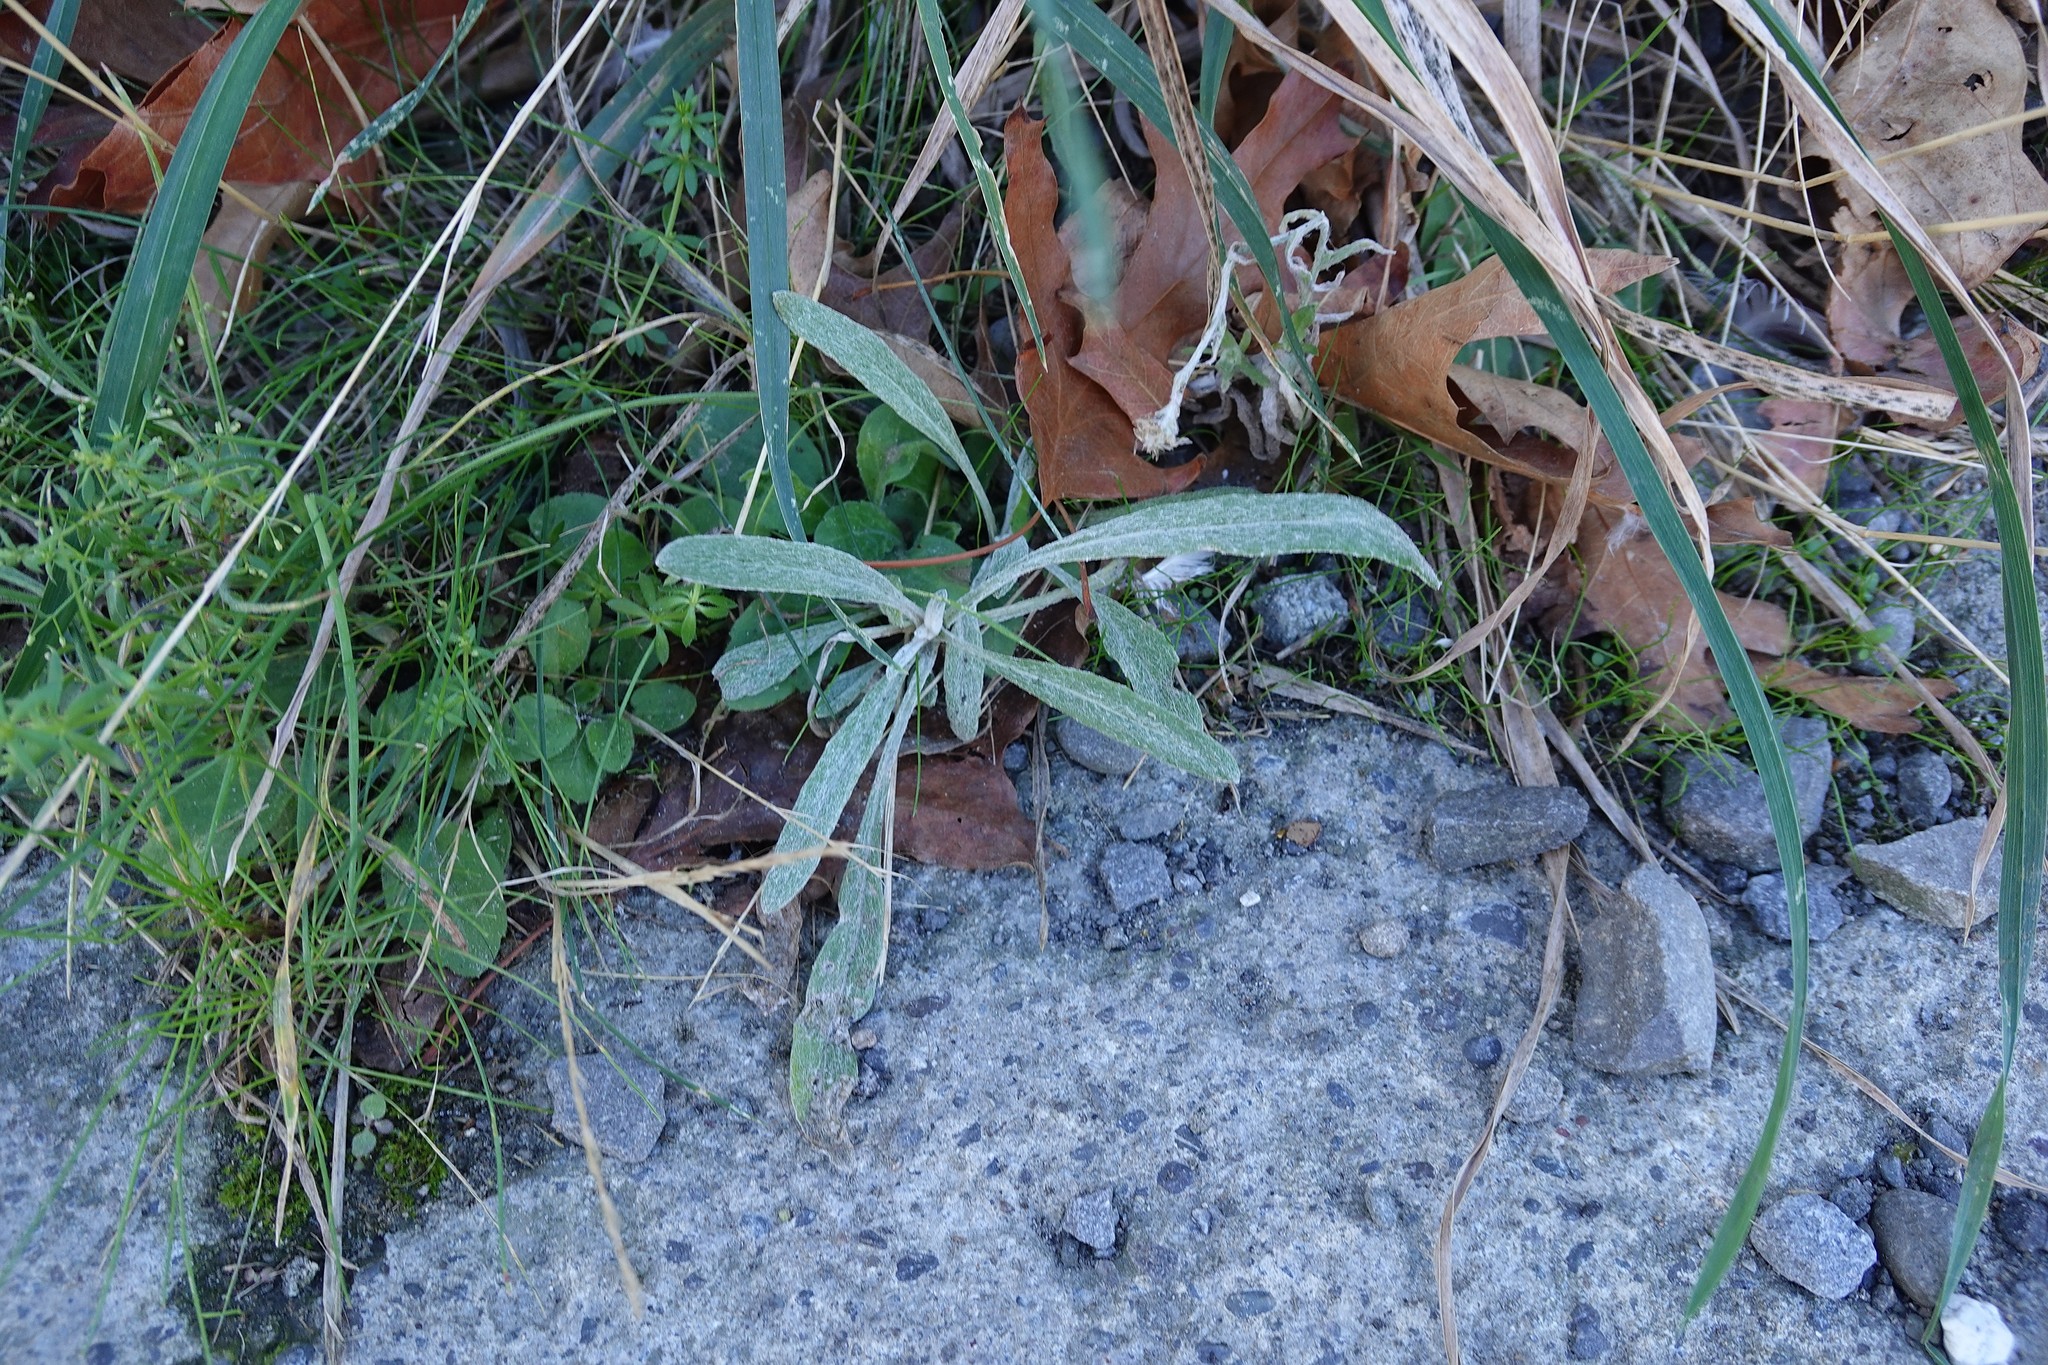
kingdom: Plantae
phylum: Tracheophyta
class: Magnoliopsida
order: Asterales
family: Asteraceae
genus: Senecio
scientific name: Senecio quadridentatus
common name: Cotton fireweed
